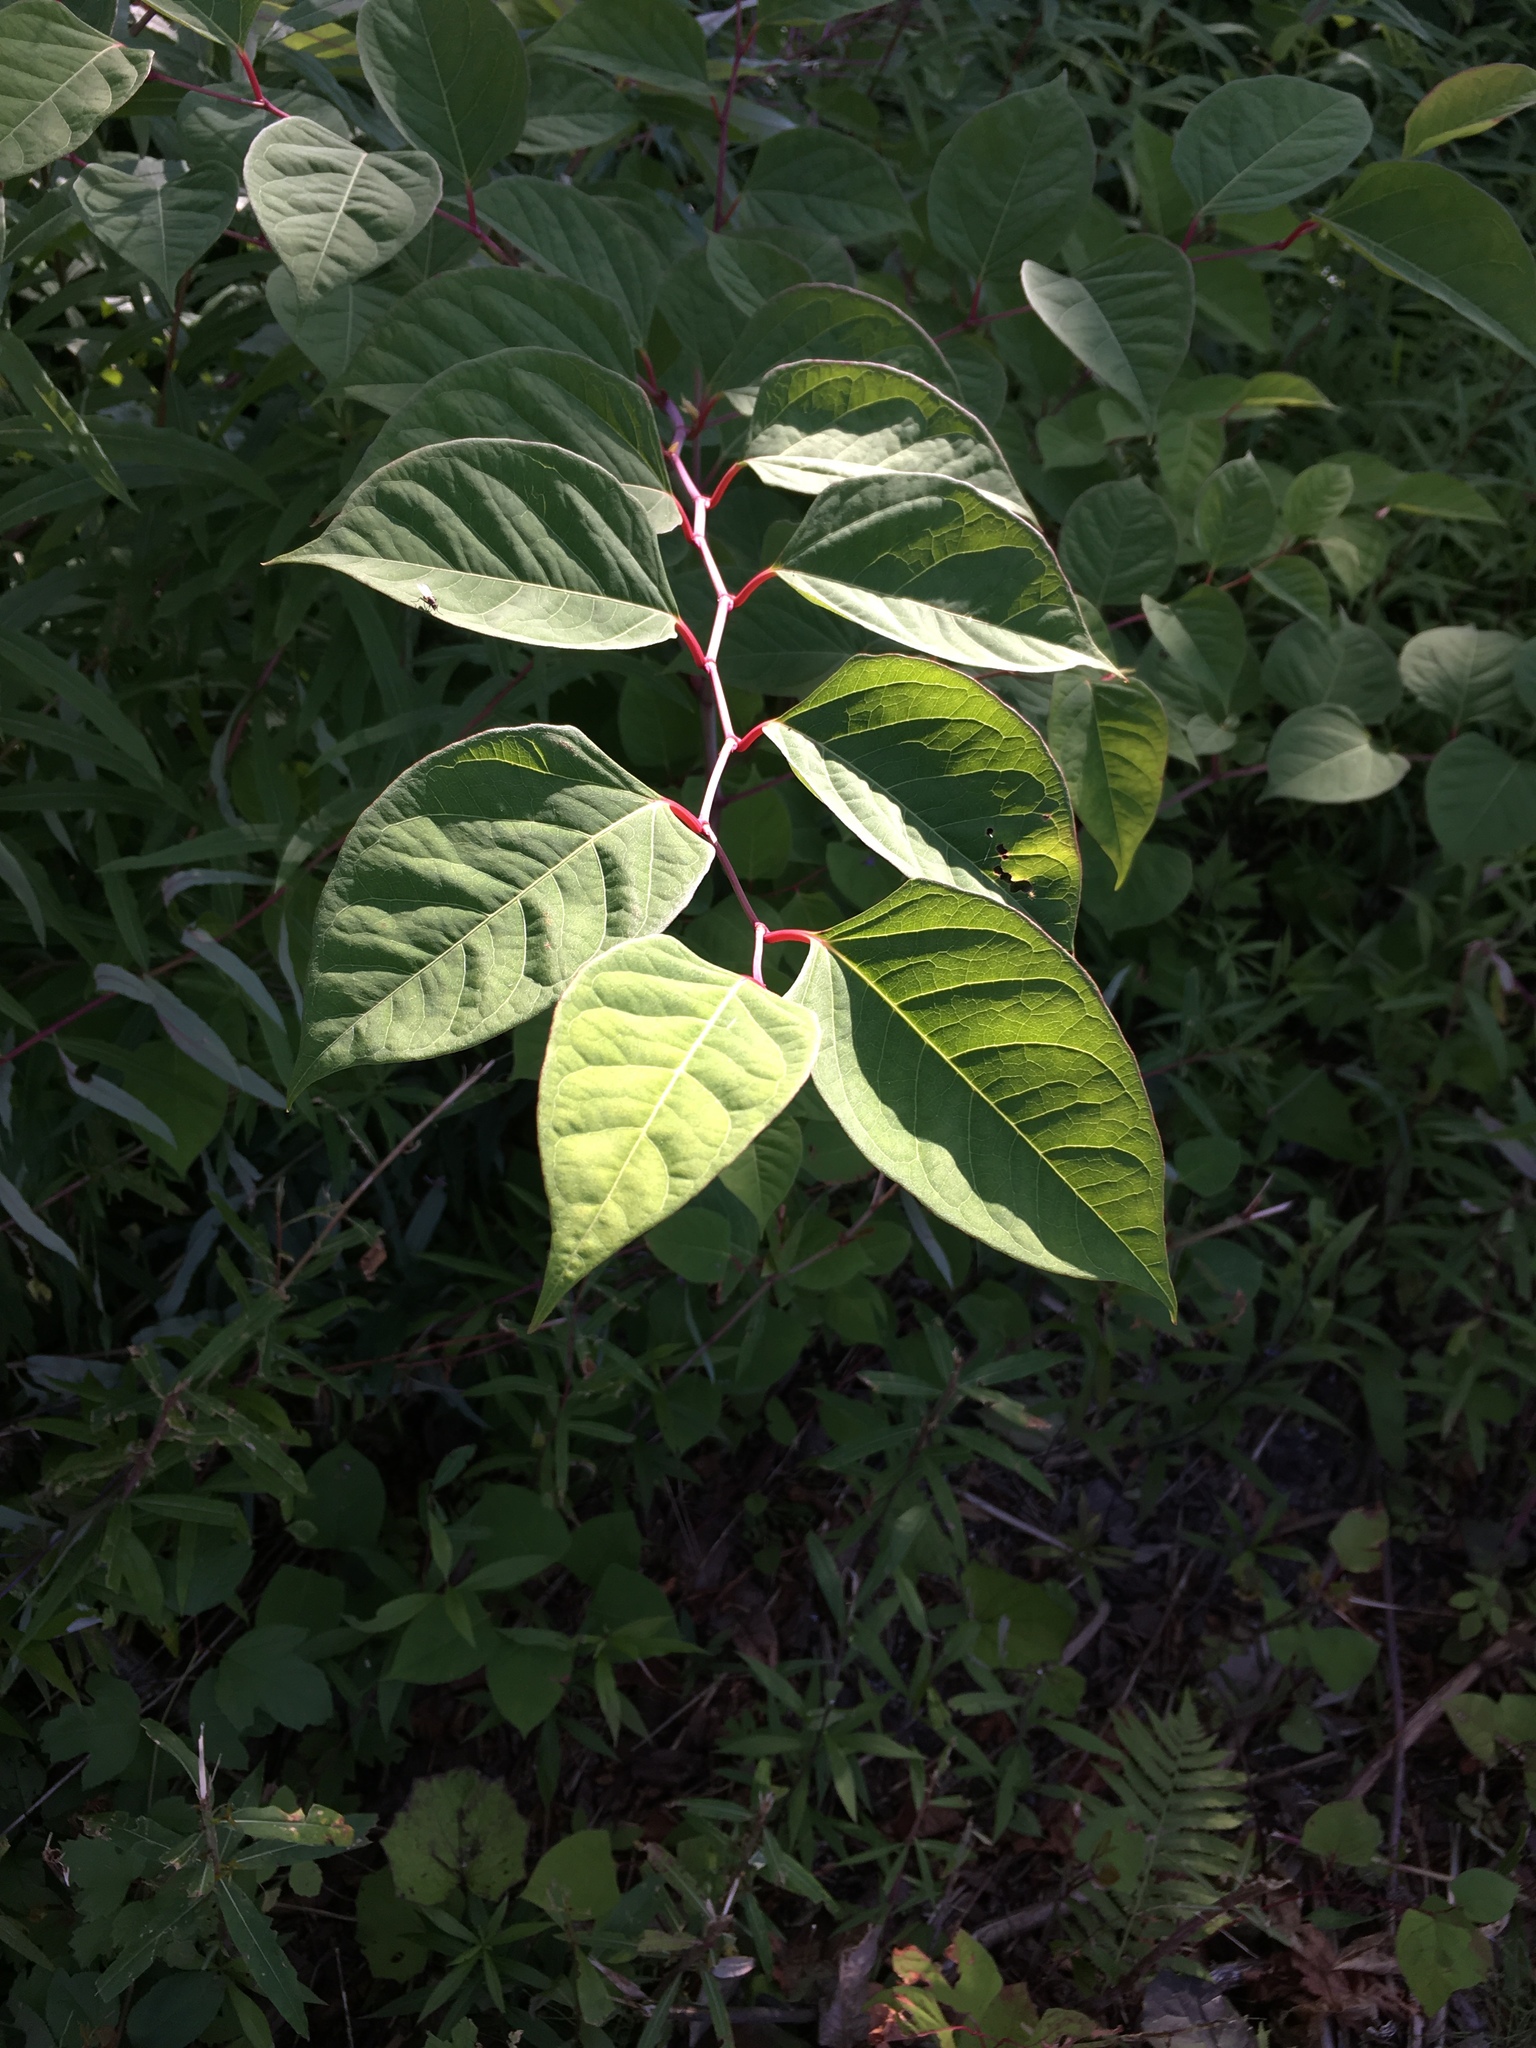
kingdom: Plantae
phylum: Tracheophyta
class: Magnoliopsida
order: Caryophyllales
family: Polygonaceae
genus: Reynoutria
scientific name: Reynoutria japonica
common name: Japanese knotweed
